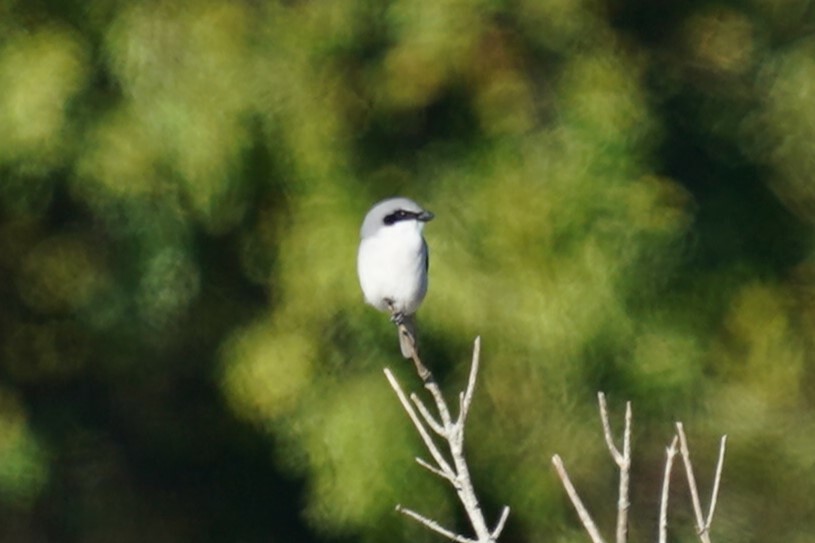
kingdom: Animalia
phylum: Chordata
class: Aves
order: Passeriformes
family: Laniidae
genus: Lanius
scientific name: Lanius ludovicianus
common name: Loggerhead shrike
